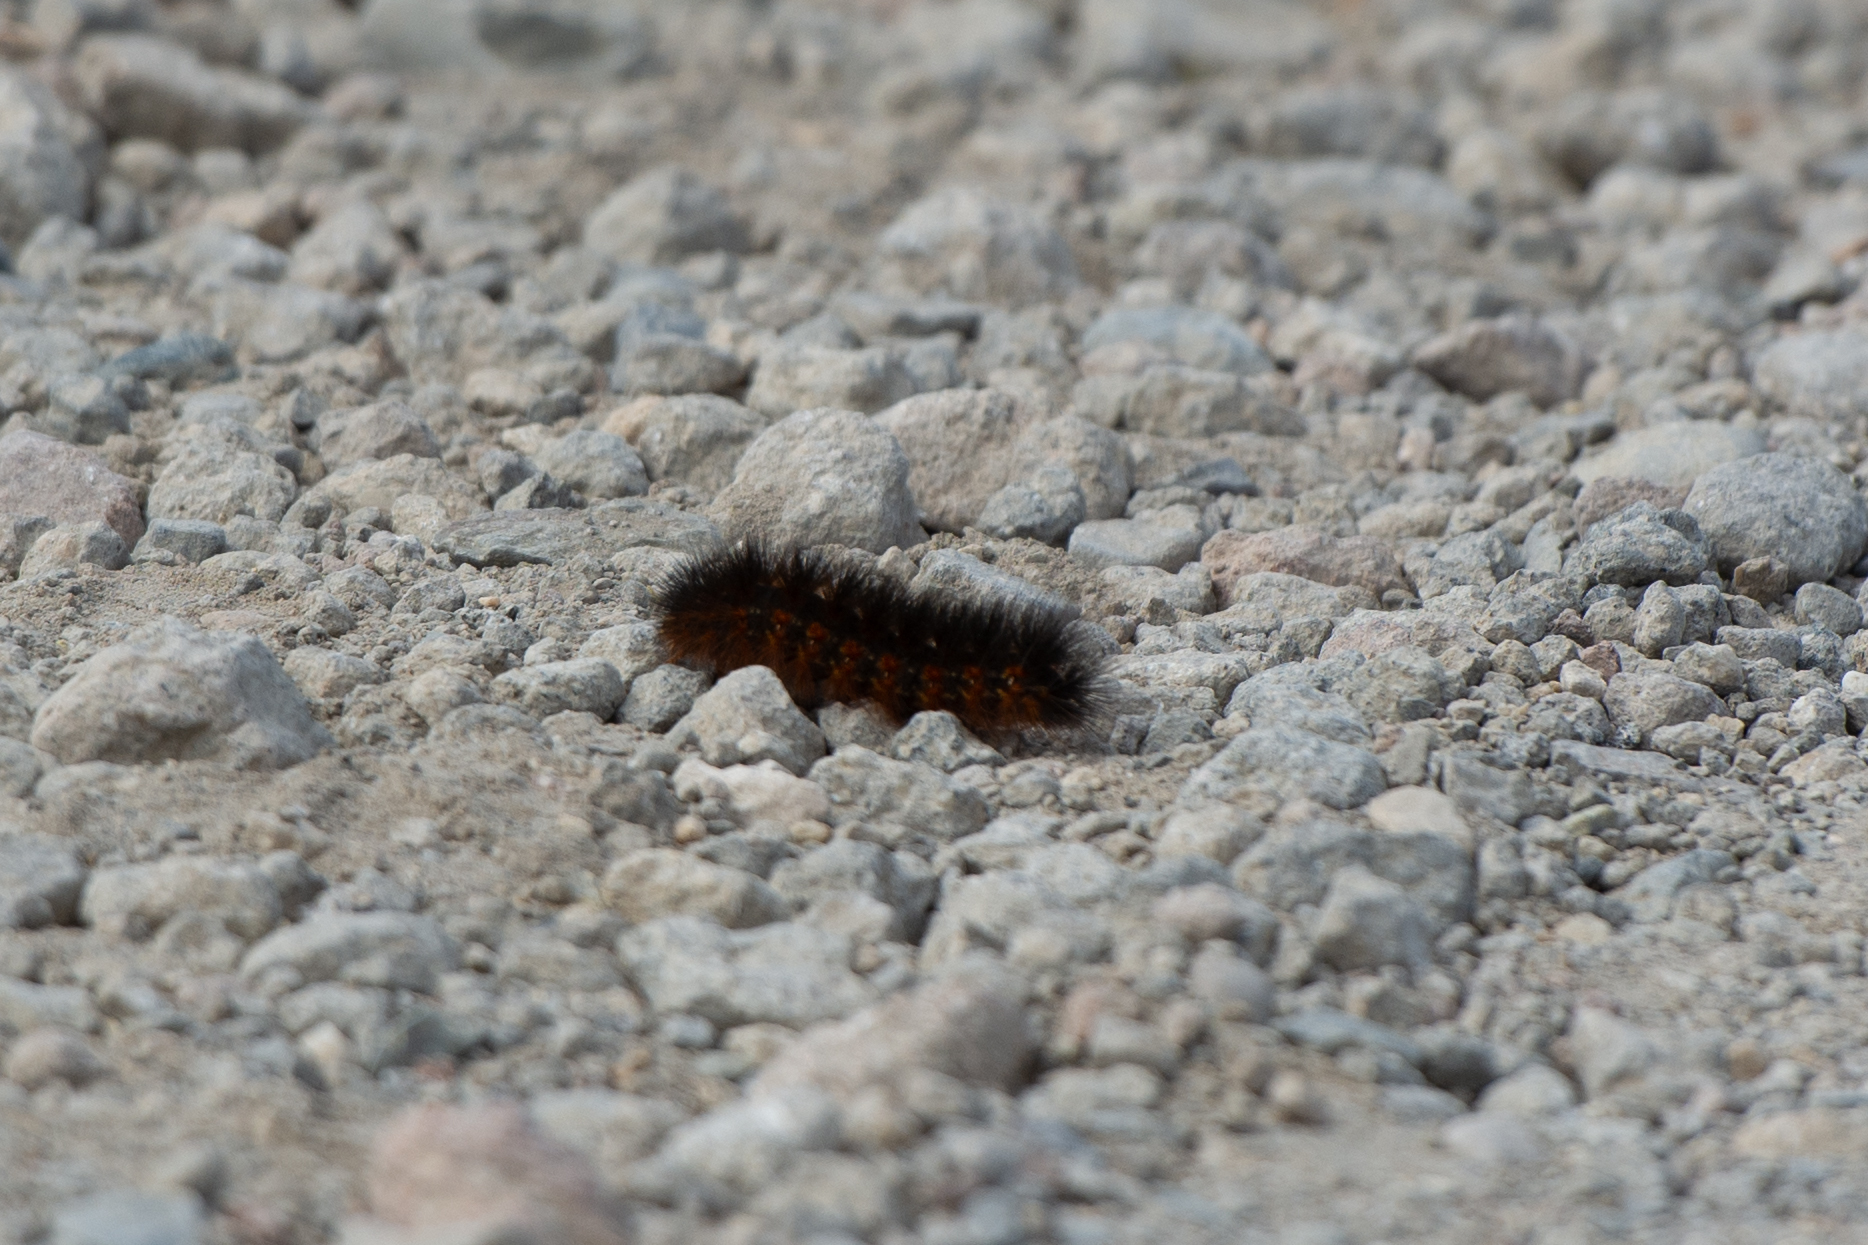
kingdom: Animalia
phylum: Arthropoda
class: Insecta
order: Lepidoptera
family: Erebidae
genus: Estigmene
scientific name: Estigmene acrea
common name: Salt marsh moth
